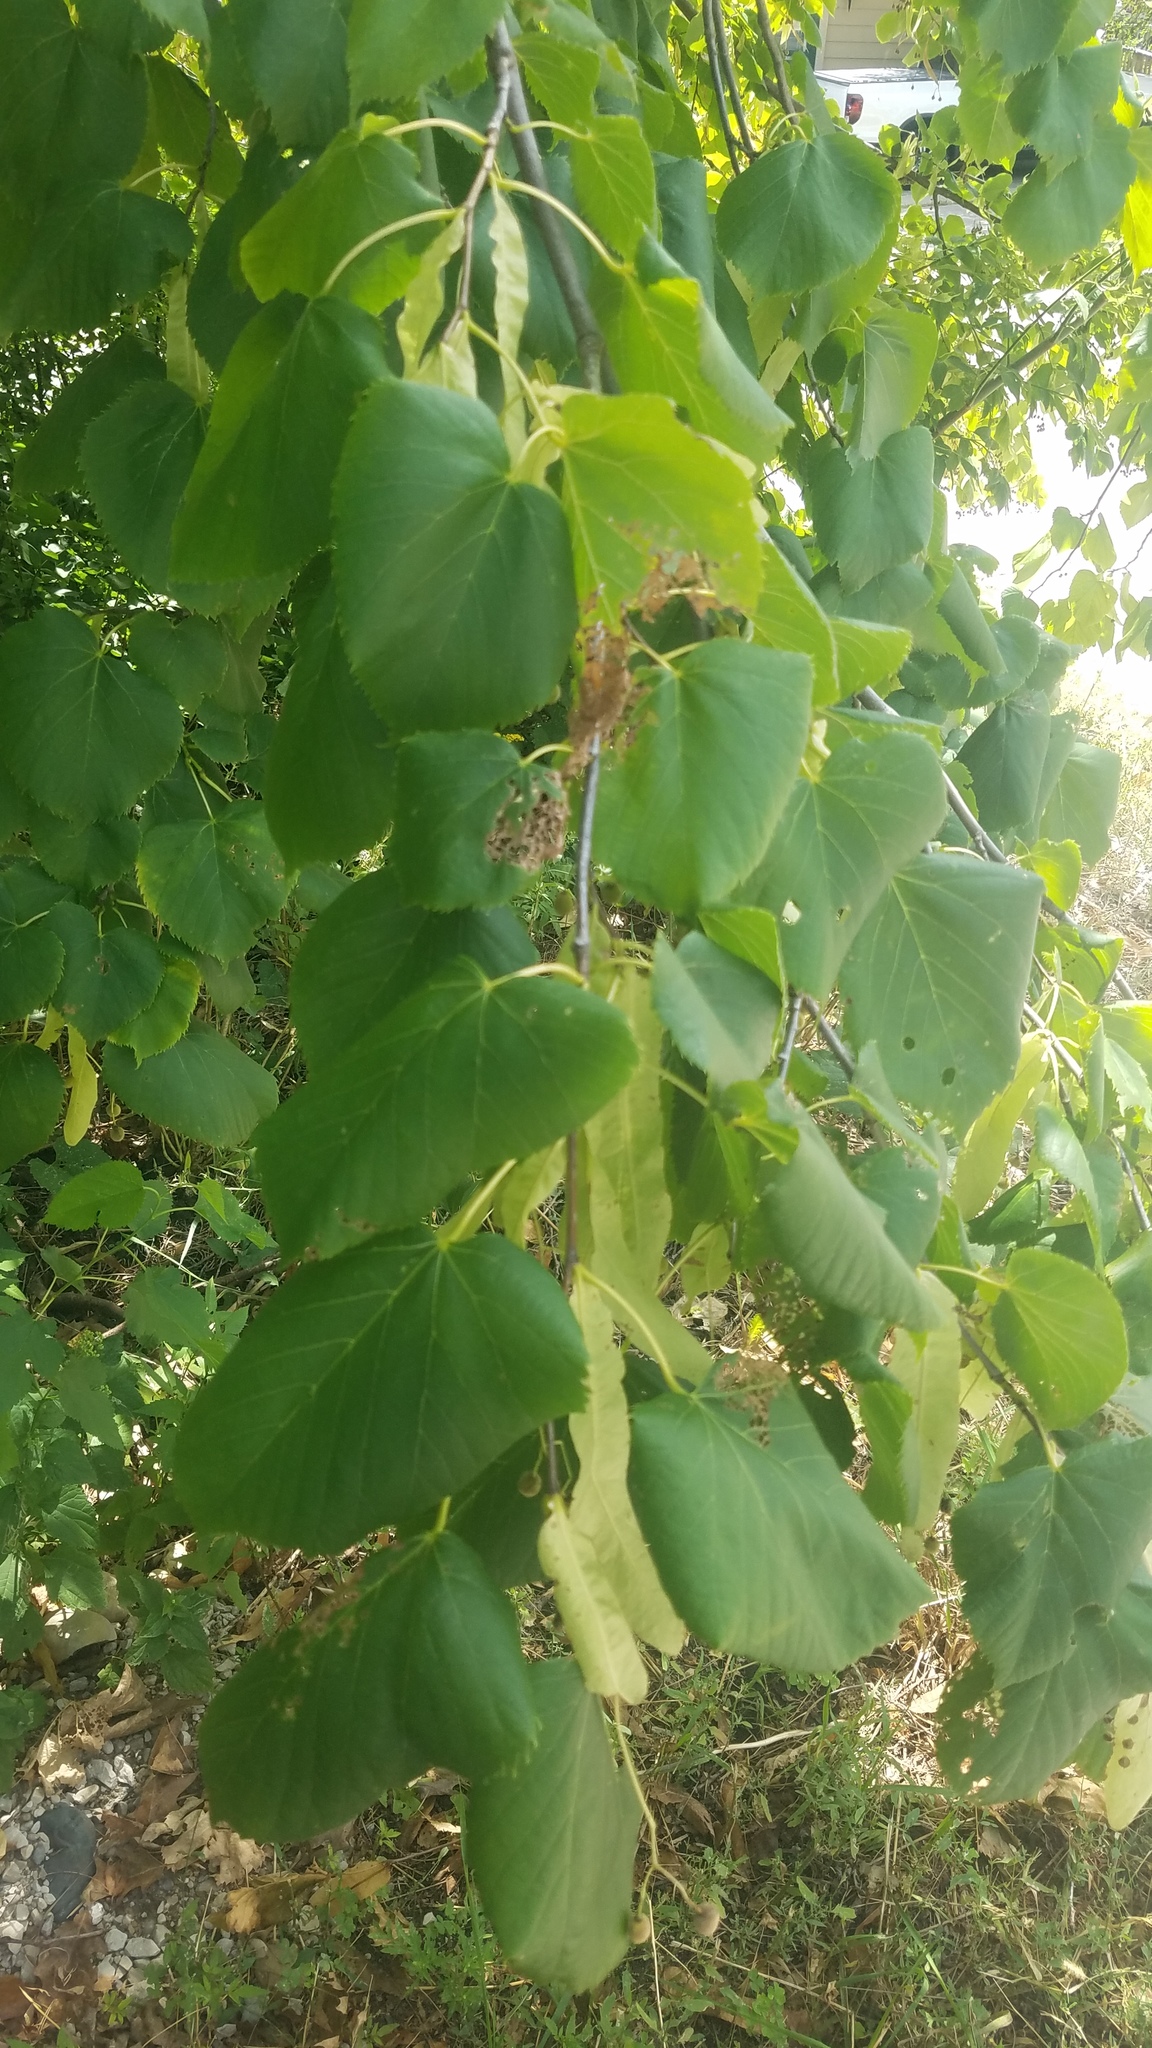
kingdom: Plantae
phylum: Tracheophyta
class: Magnoliopsida
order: Malvales
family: Malvaceae
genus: Tilia
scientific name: Tilia americana
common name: Basswood
